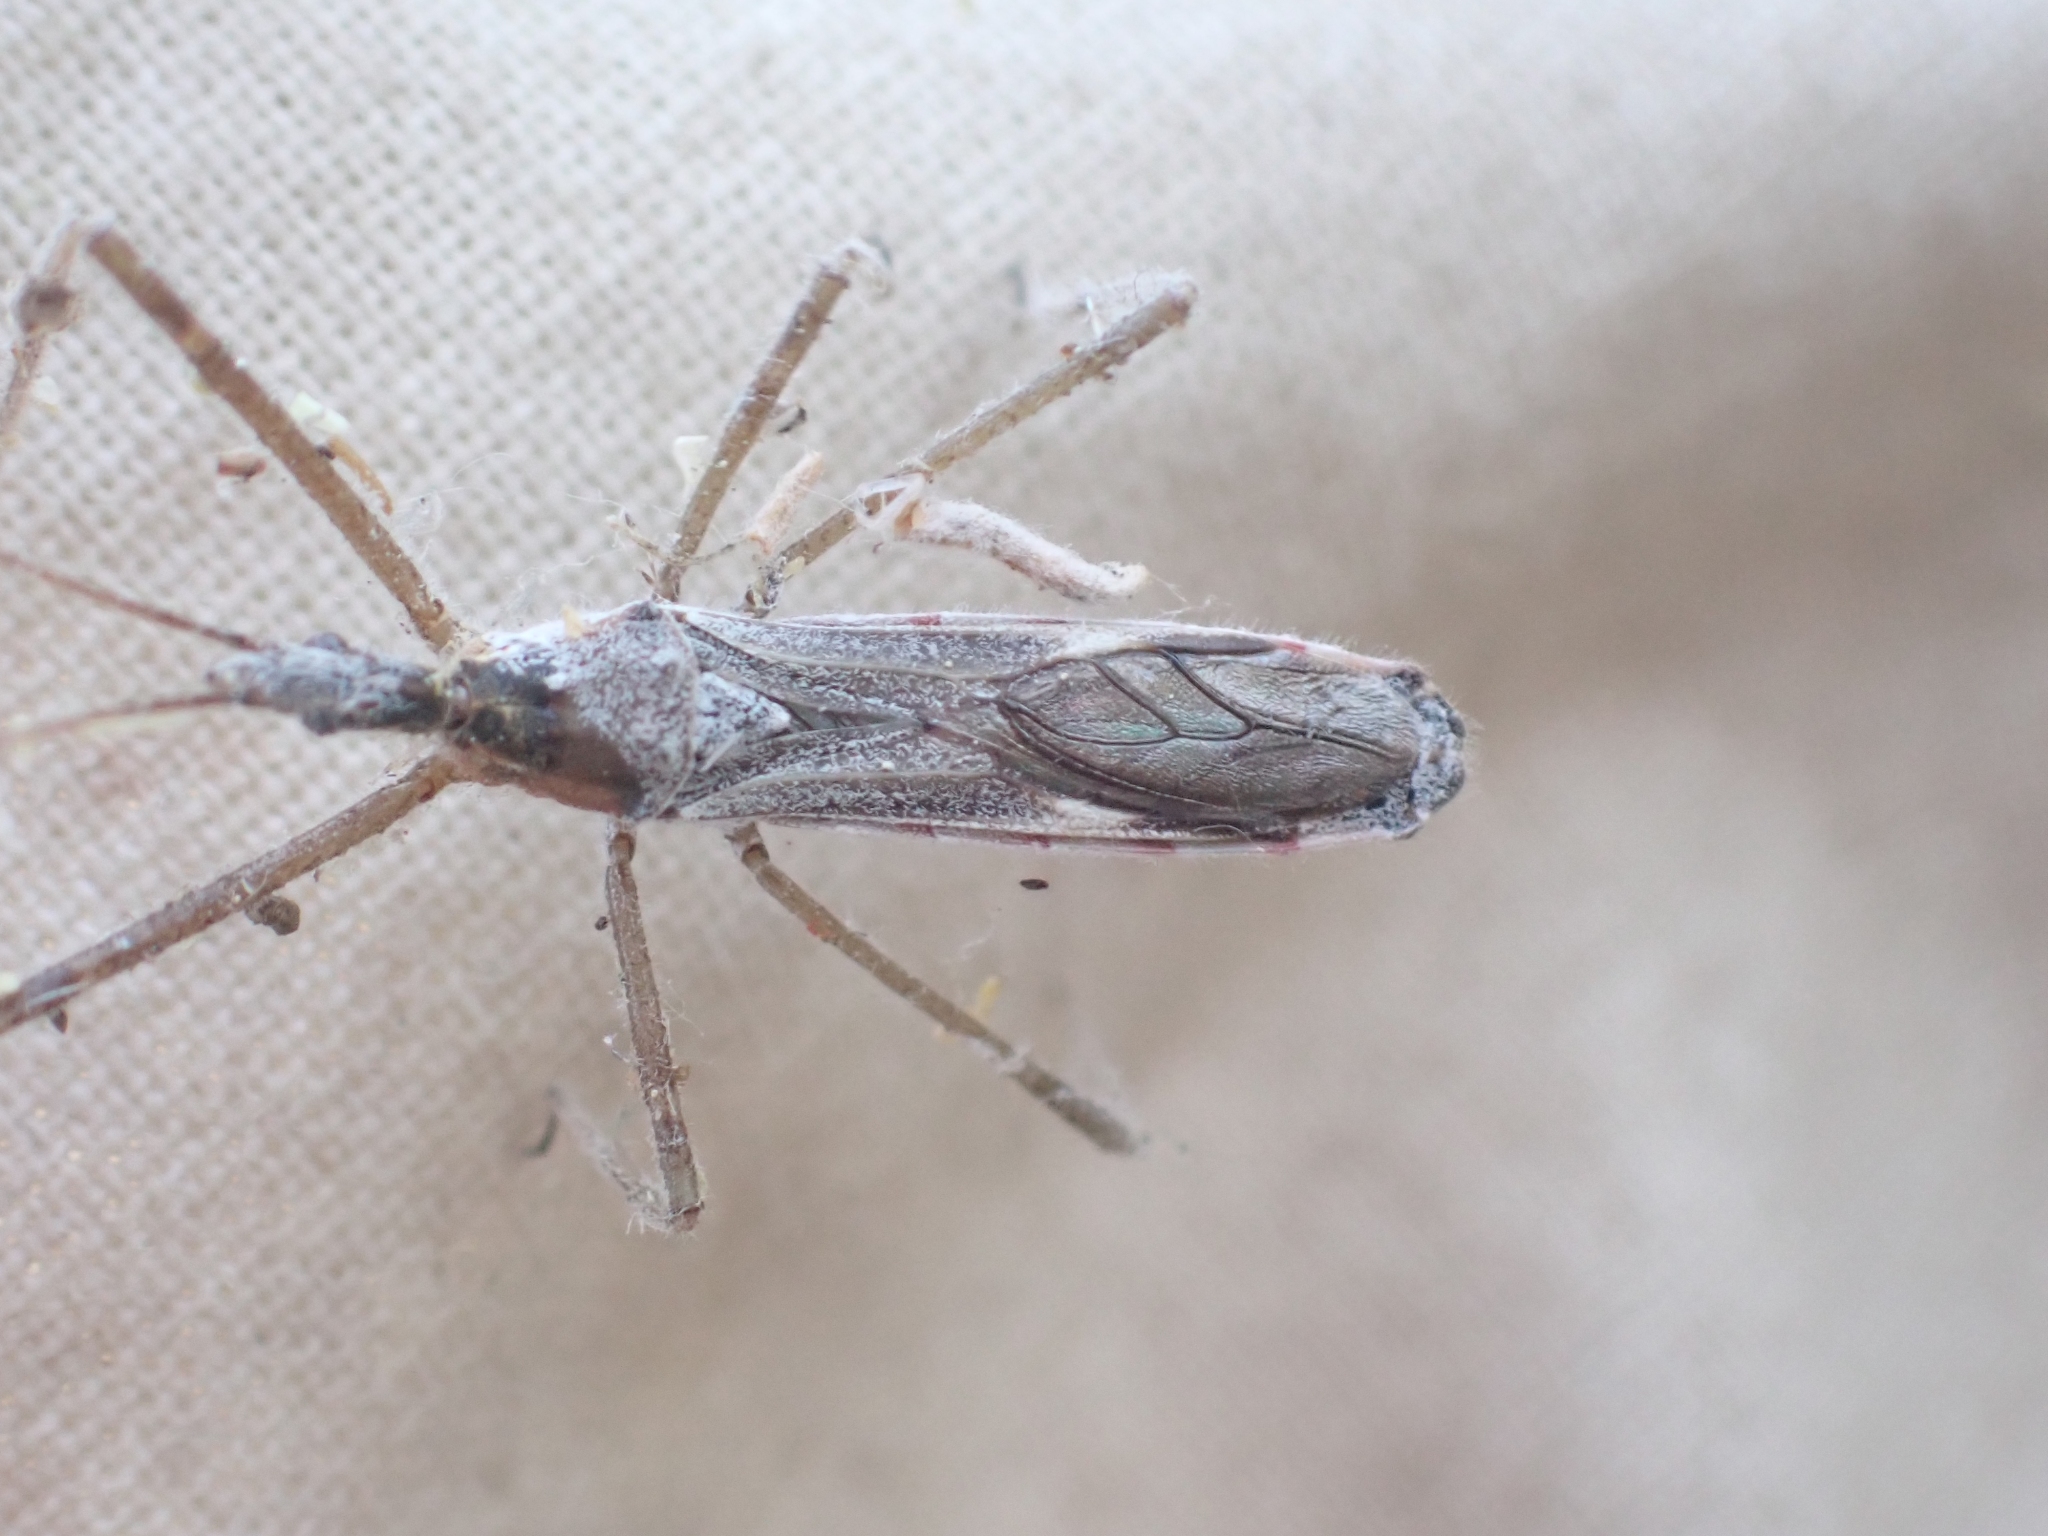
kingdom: Animalia
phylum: Arthropoda
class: Insecta
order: Hemiptera
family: Reduviidae
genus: Zelus
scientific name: Zelus tetracanthus
